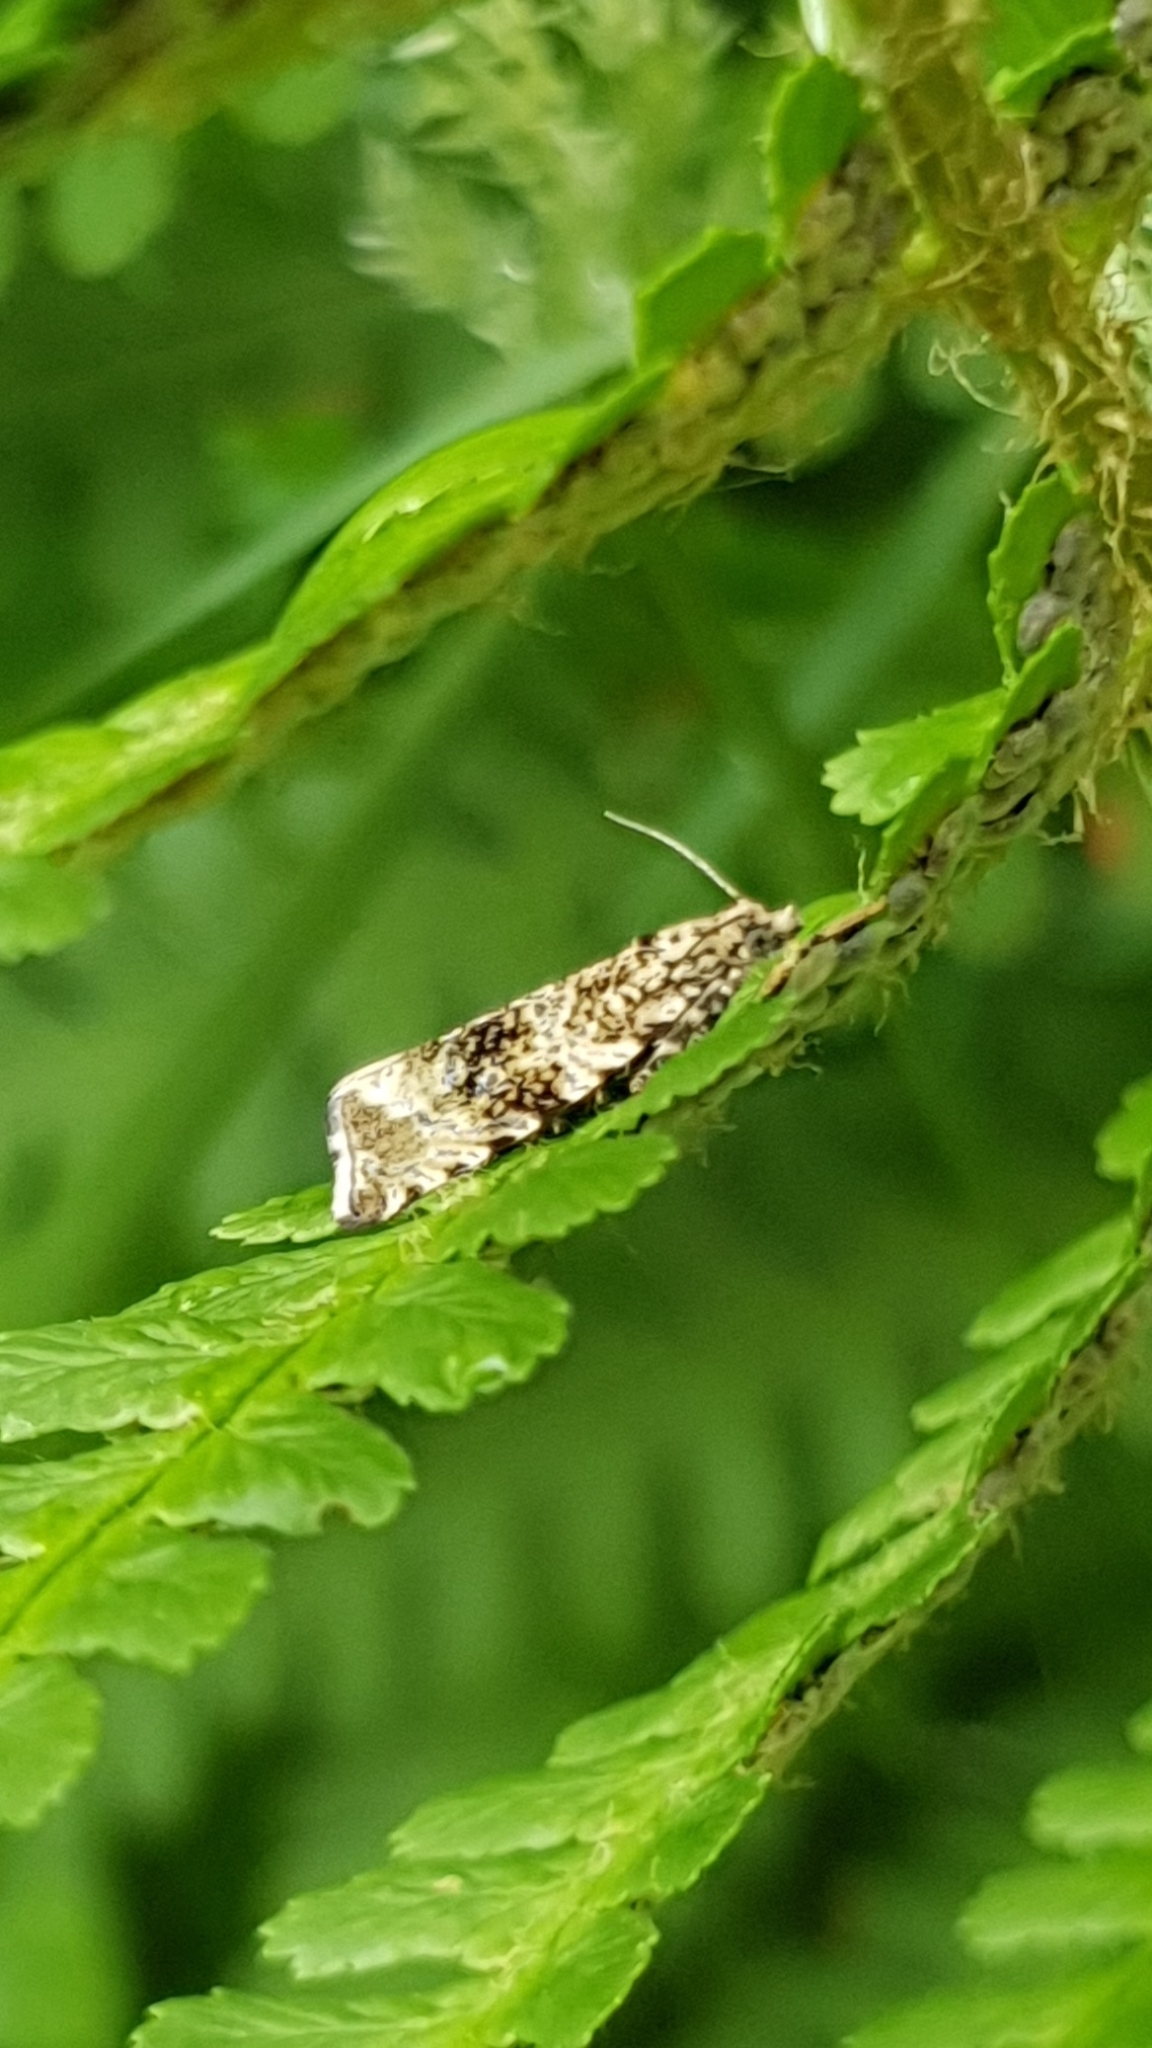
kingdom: Animalia
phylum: Arthropoda
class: Insecta
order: Lepidoptera
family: Tortricidae
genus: Syricoris
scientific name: Syricoris lacunana
